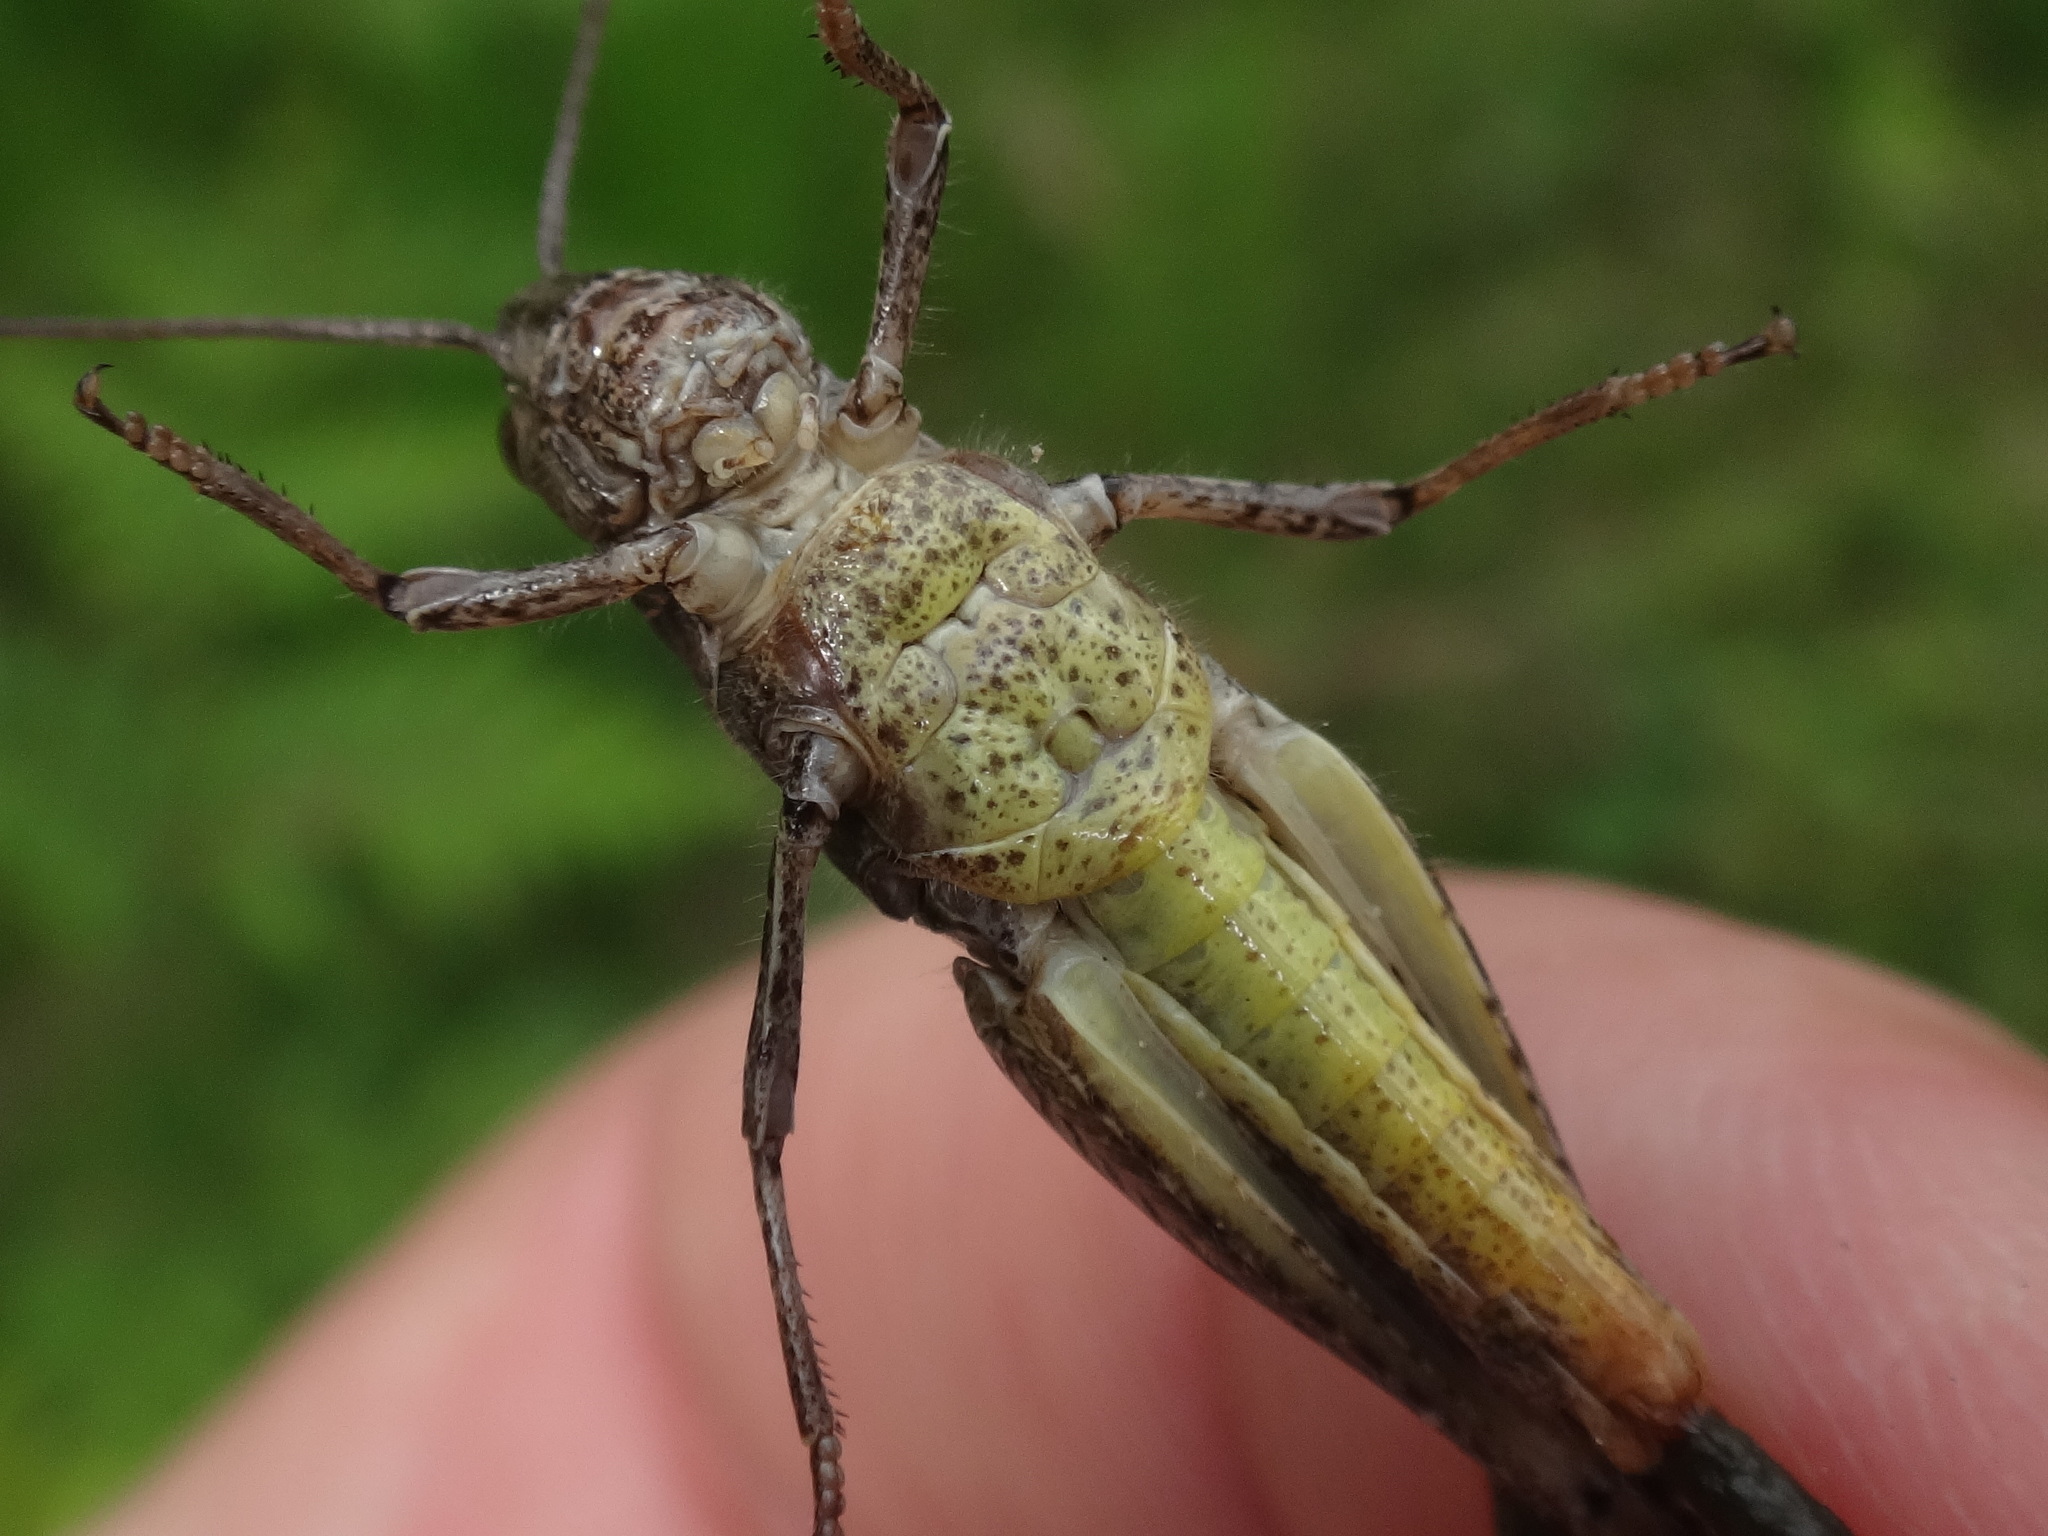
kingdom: Animalia
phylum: Arthropoda
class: Insecta
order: Orthoptera
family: Acrididae
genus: Chorthippus
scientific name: Chorthippus brunneus
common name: Field grasshopper
